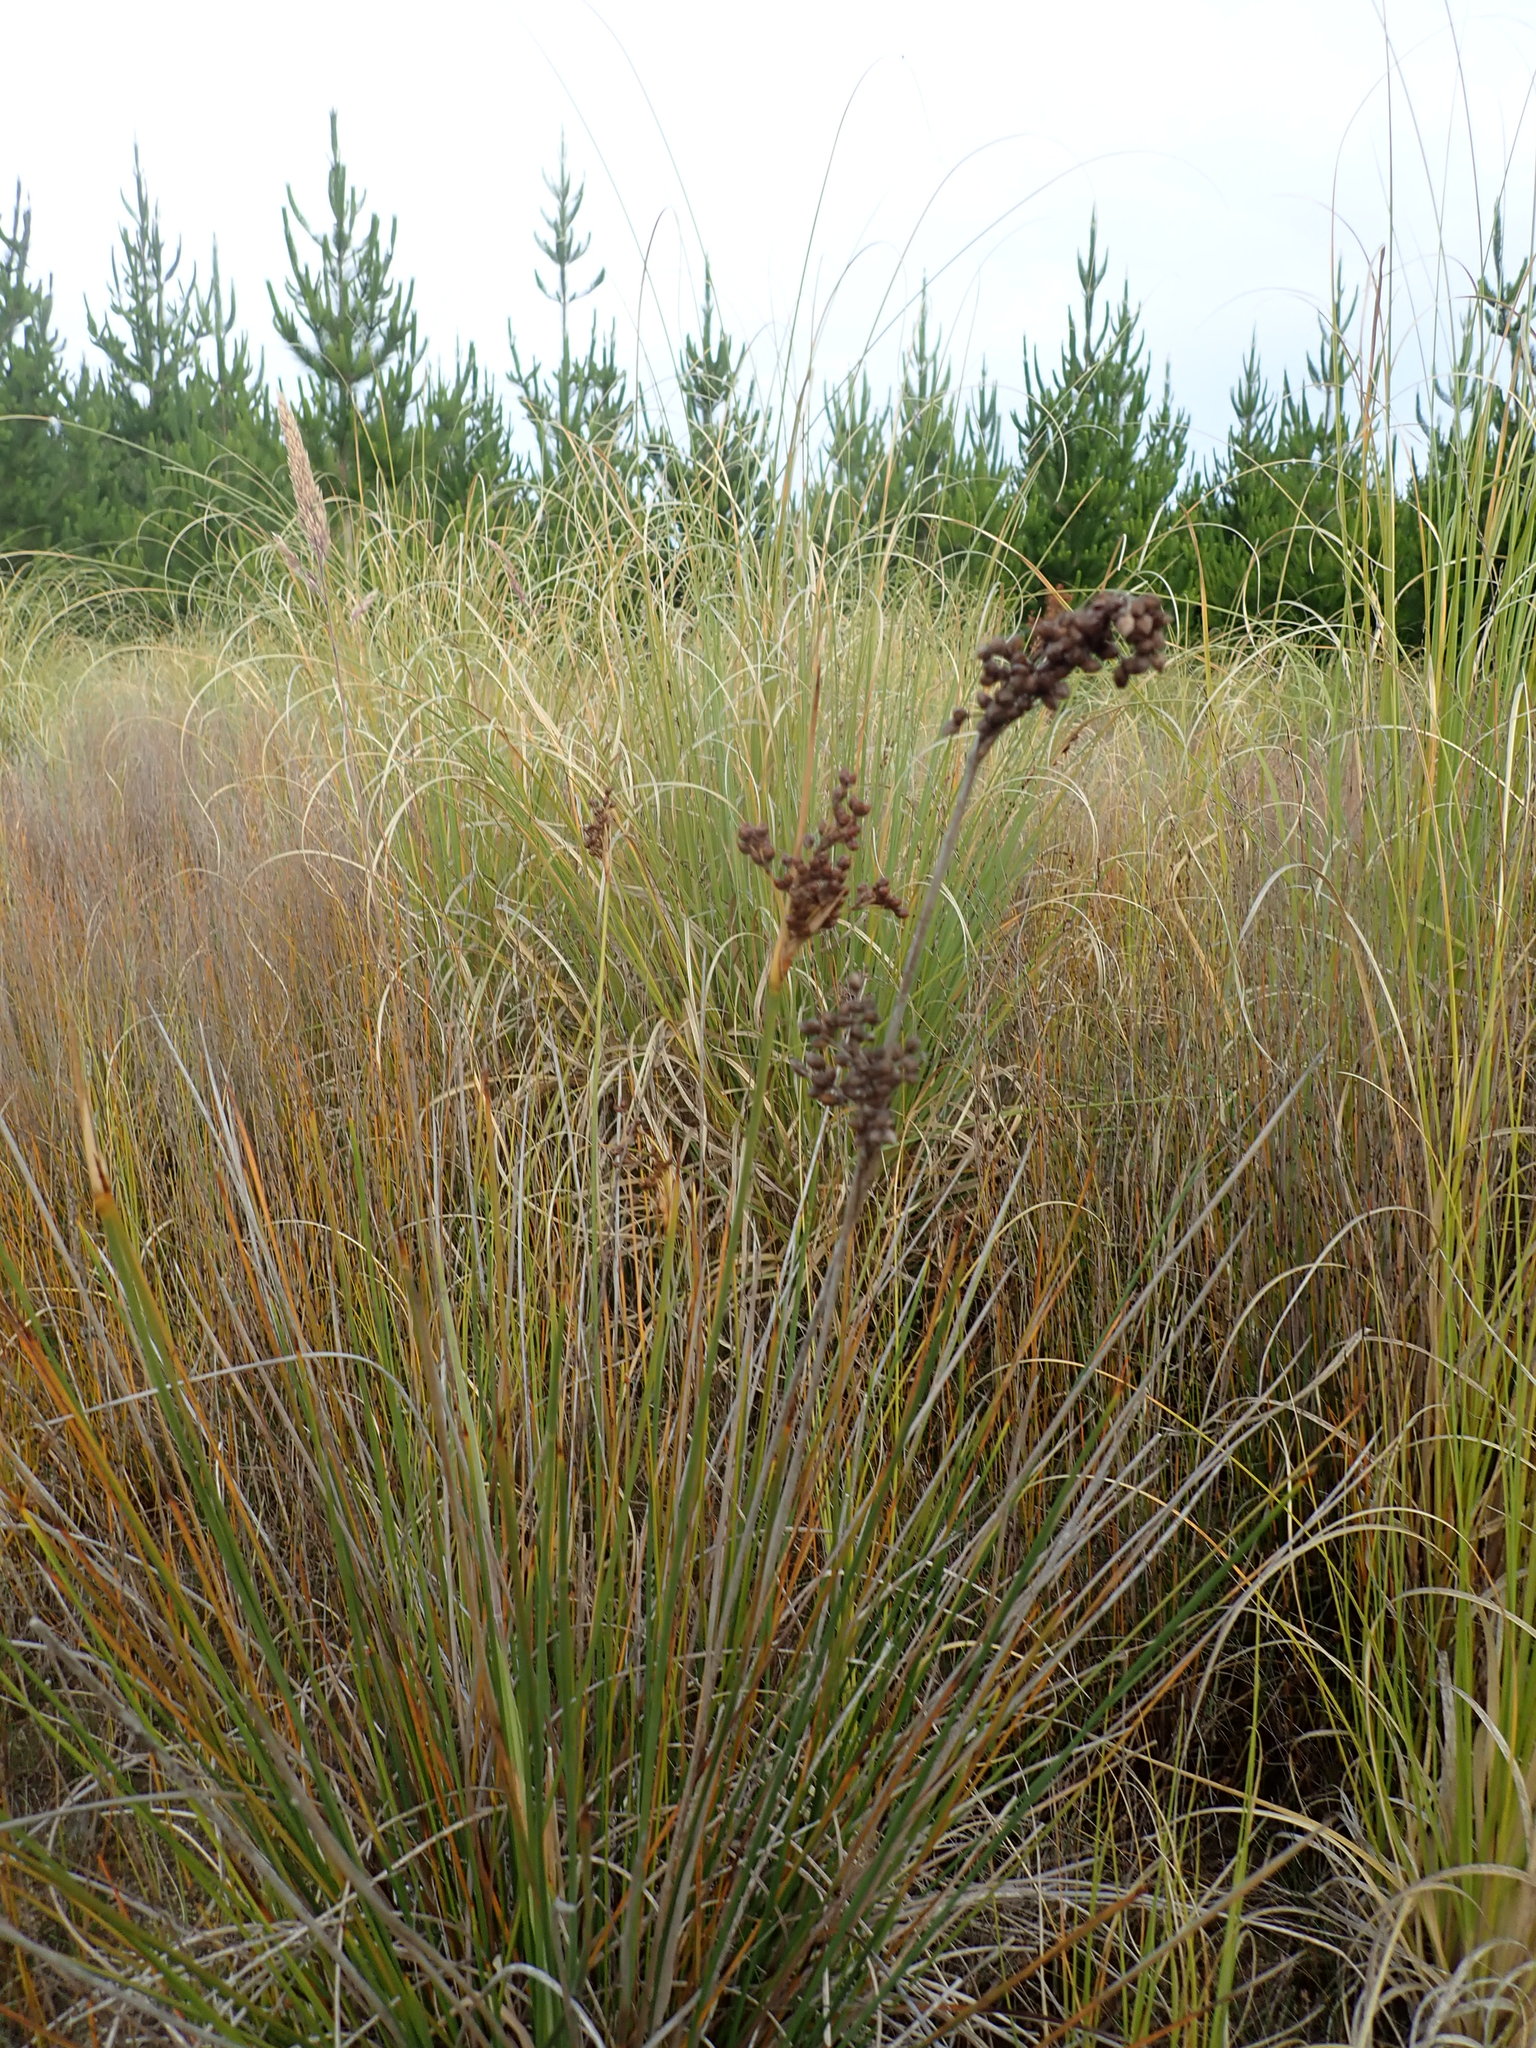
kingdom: Plantae
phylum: Tracheophyta
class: Liliopsida
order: Poales
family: Juncaceae
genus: Juncus
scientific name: Juncus acutus
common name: Sharp rush
